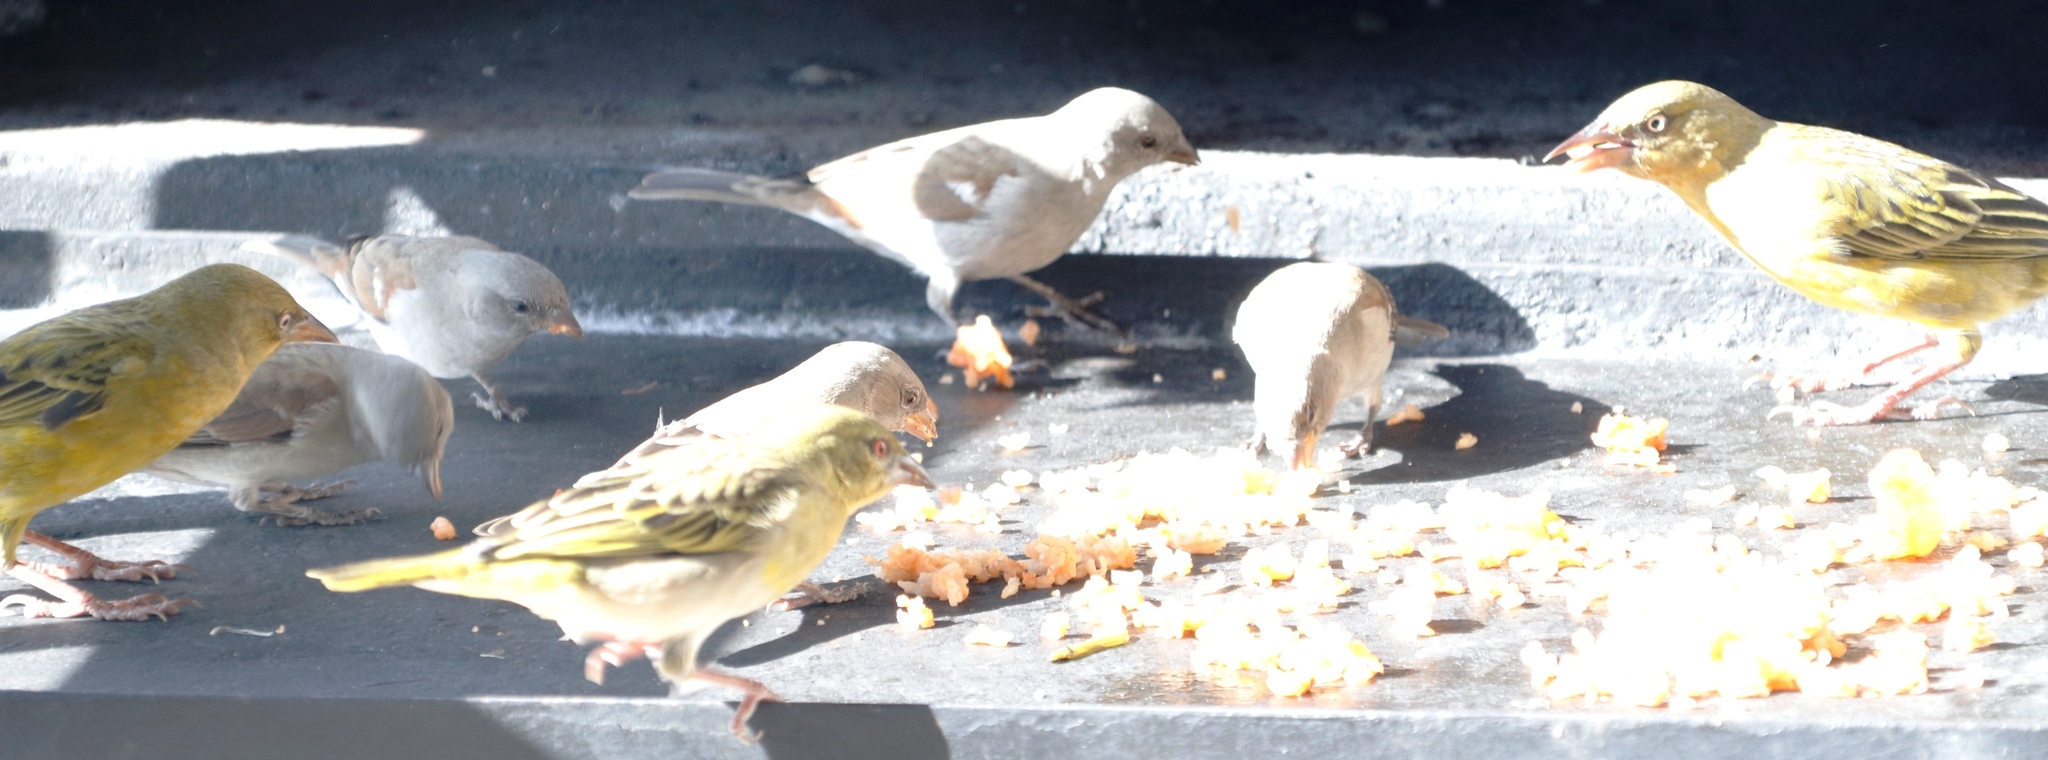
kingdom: Animalia
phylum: Chordata
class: Aves
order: Passeriformes
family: Passeridae
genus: Passer
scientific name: Passer diffusus
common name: Southern grey-headed sparrow
